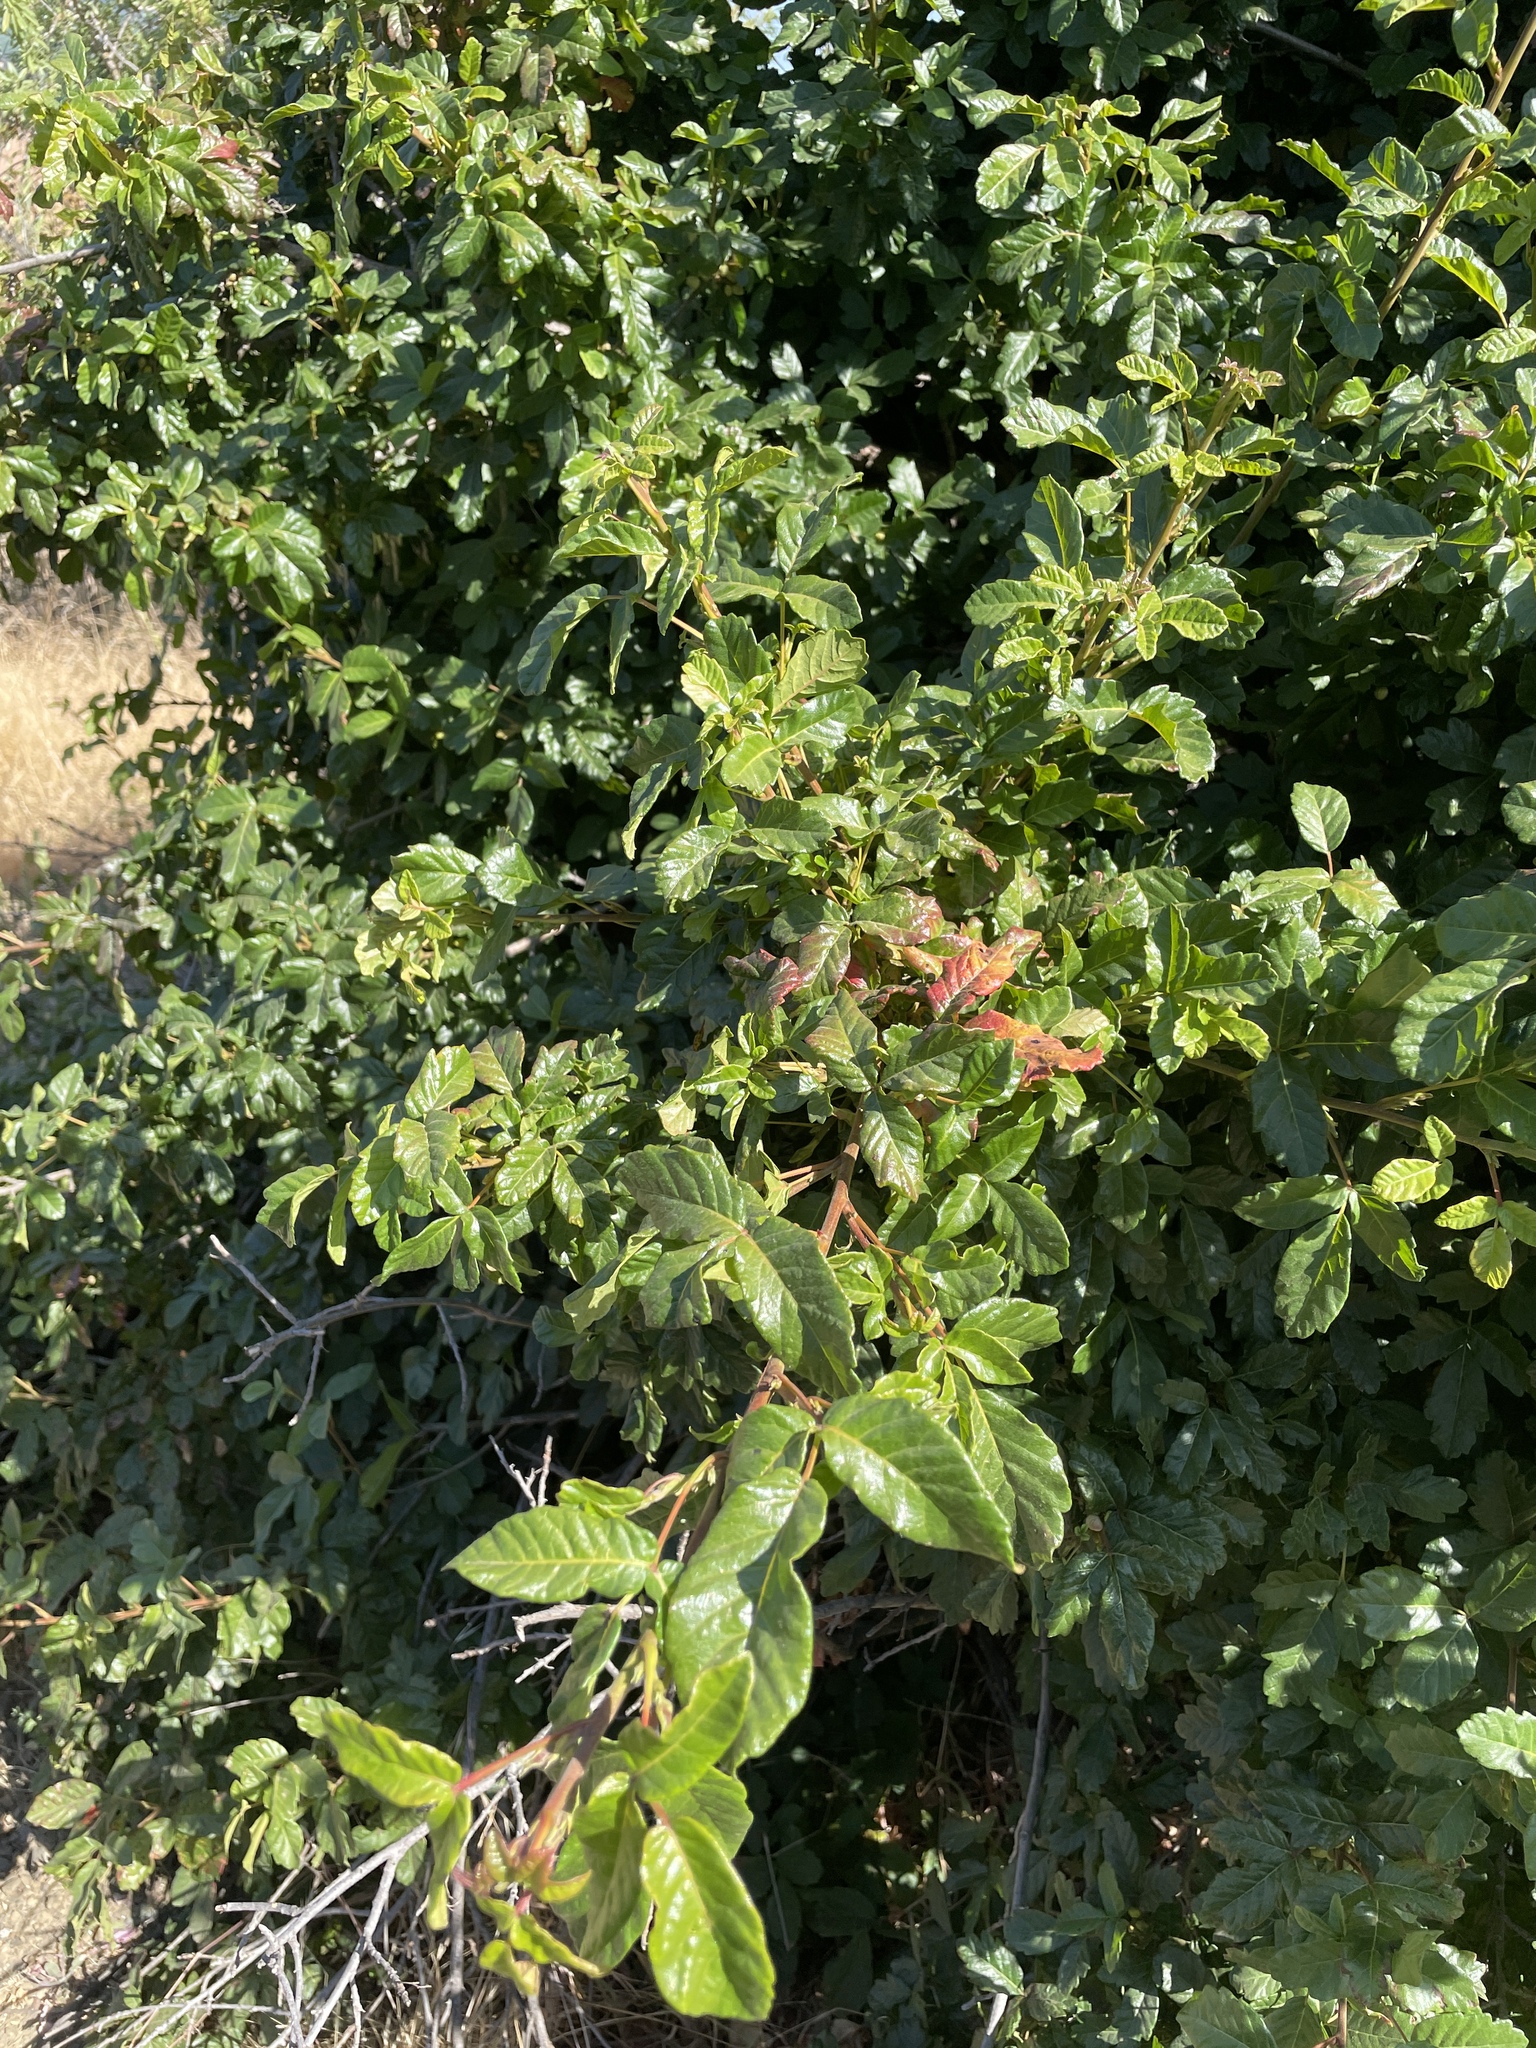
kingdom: Plantae
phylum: Tracheophyta
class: Magnoliopsida
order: Sapindales
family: Anacardiaceae
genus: Toxicodendron
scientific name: Toxicodendron diversilobum
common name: Pacific poison-oak
